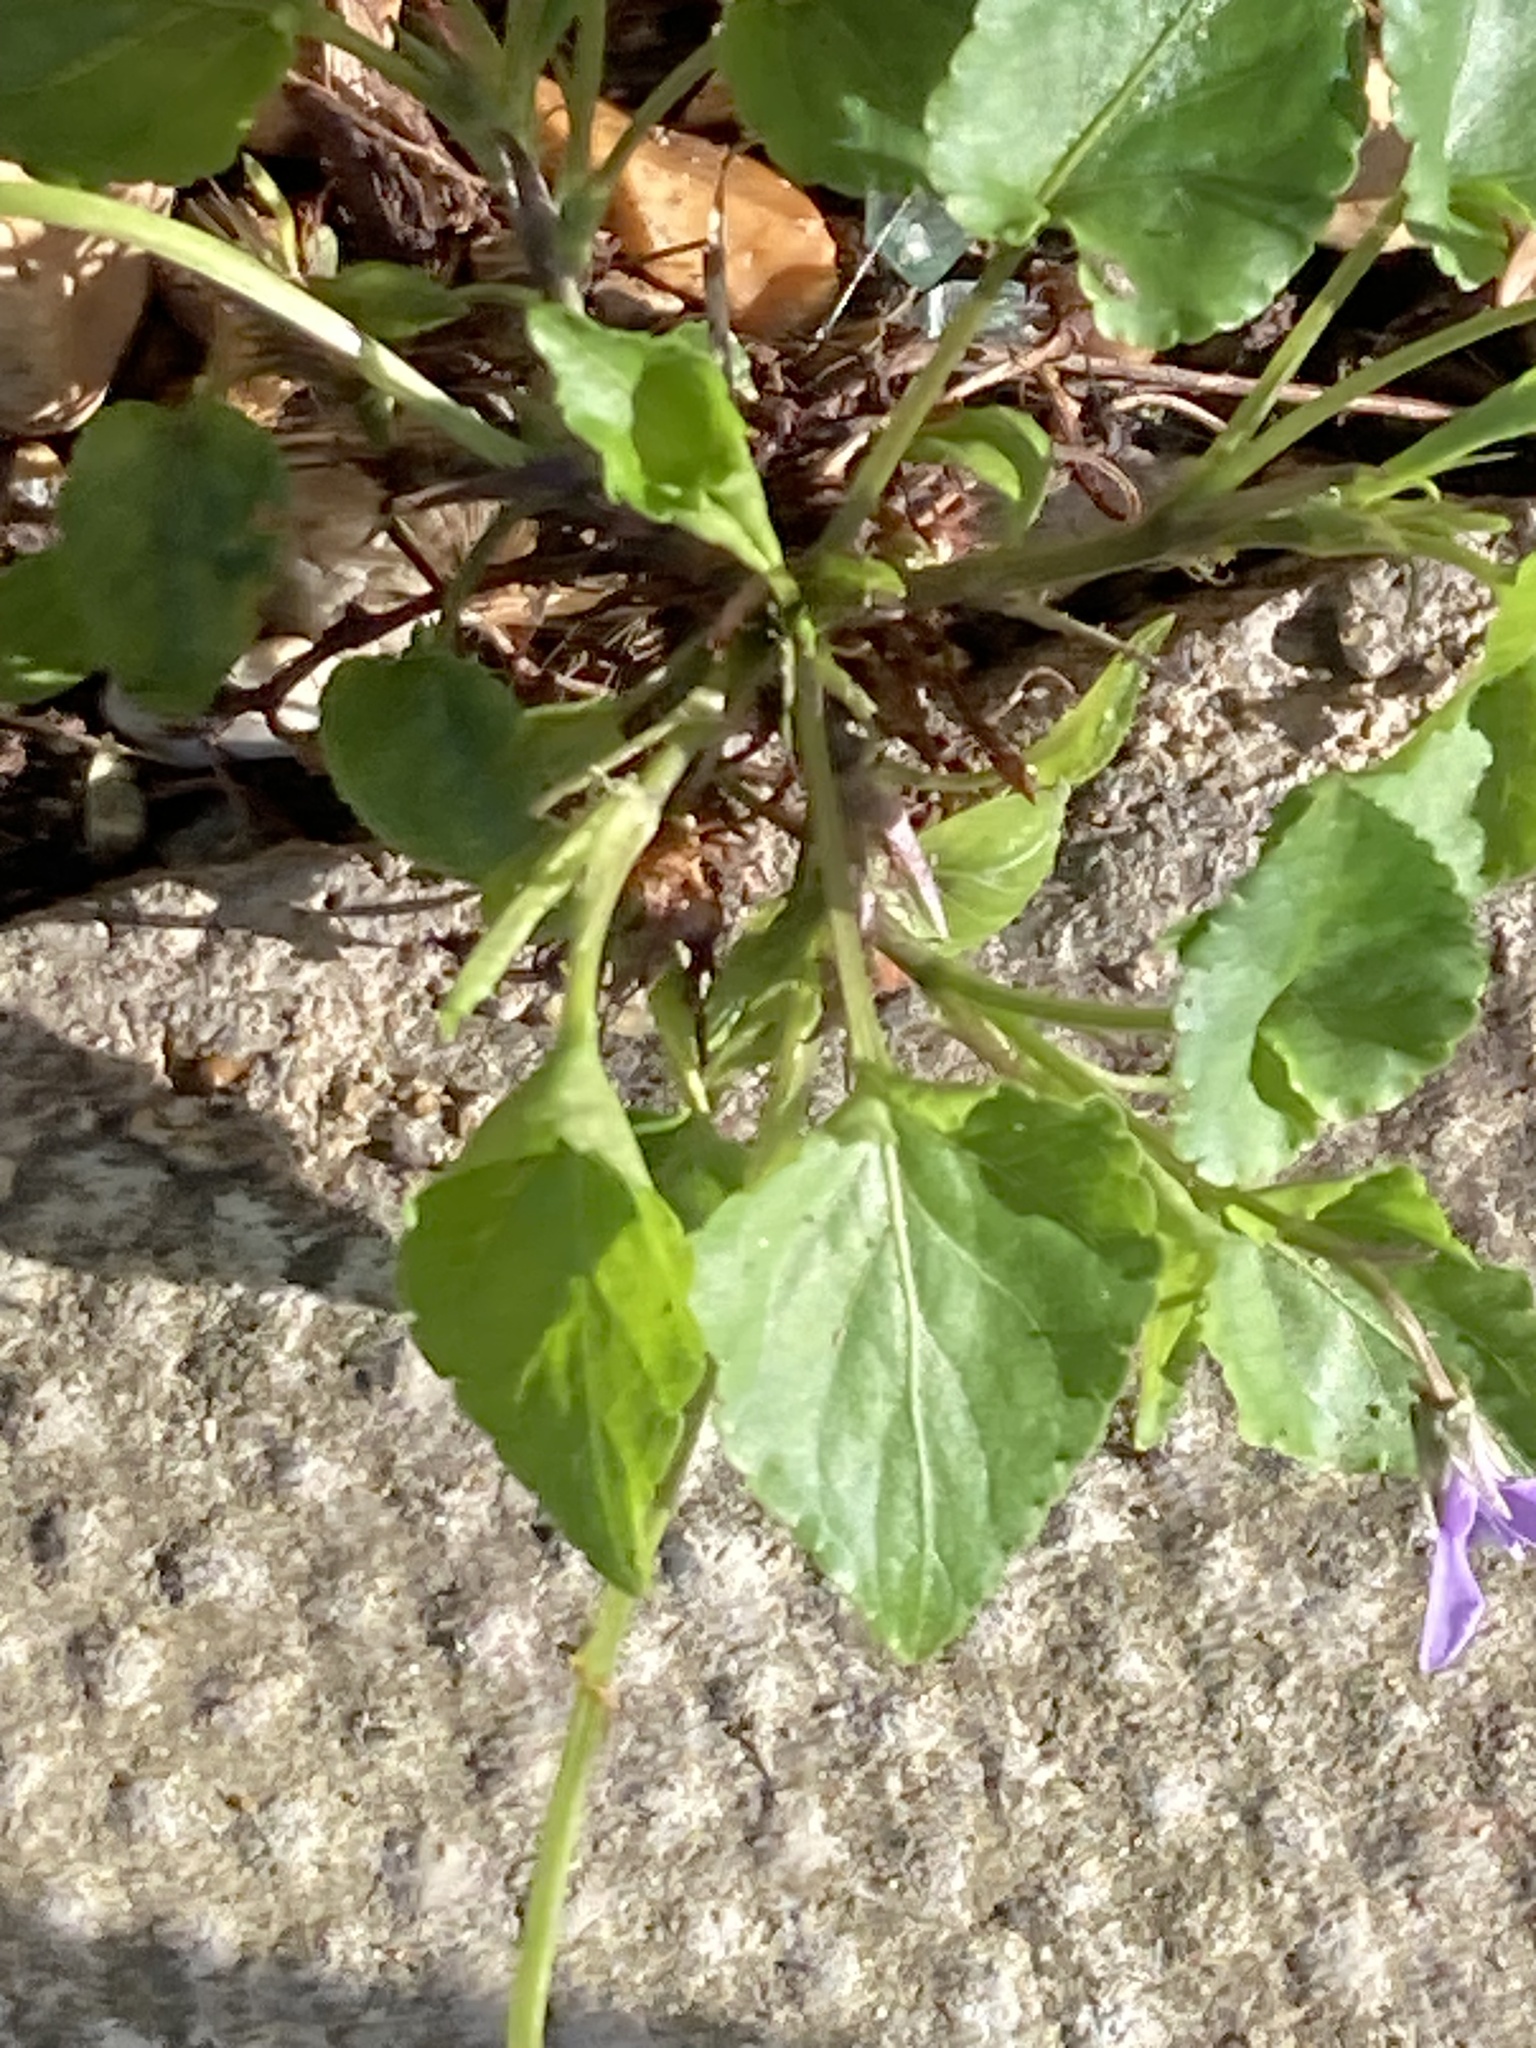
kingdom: Plantae
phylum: Tracheophyta
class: Magnoliopsida
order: Malpighiales
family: Violaceae
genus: Viola
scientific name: Viola reichenbachiana
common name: Early dog-violet
